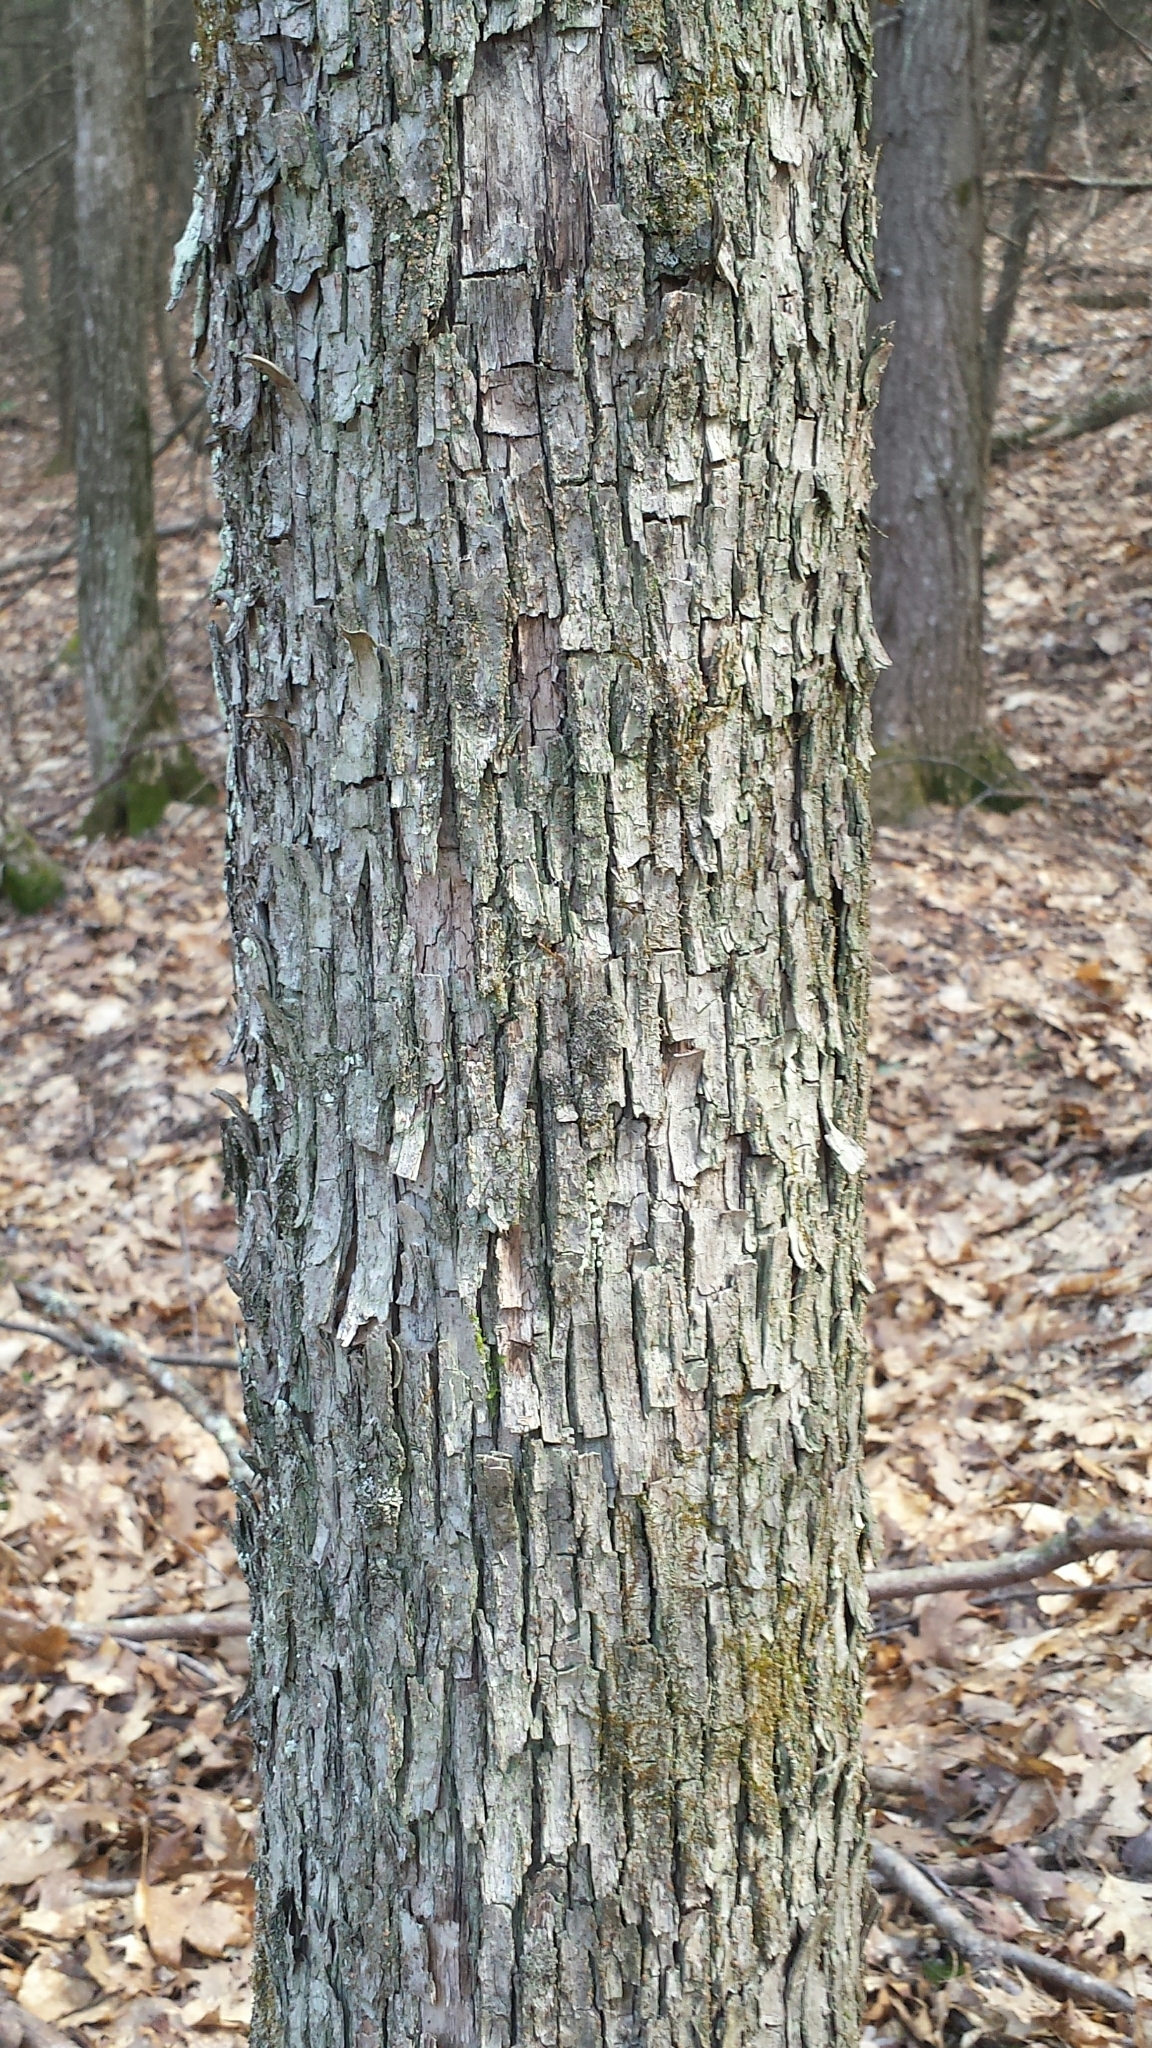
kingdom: Plantae
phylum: Tracheophyta
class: Magnoliopsida
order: Fagales
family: Betulaceae
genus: Ostrya
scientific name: Ostrya virginiana
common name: Ironwood
